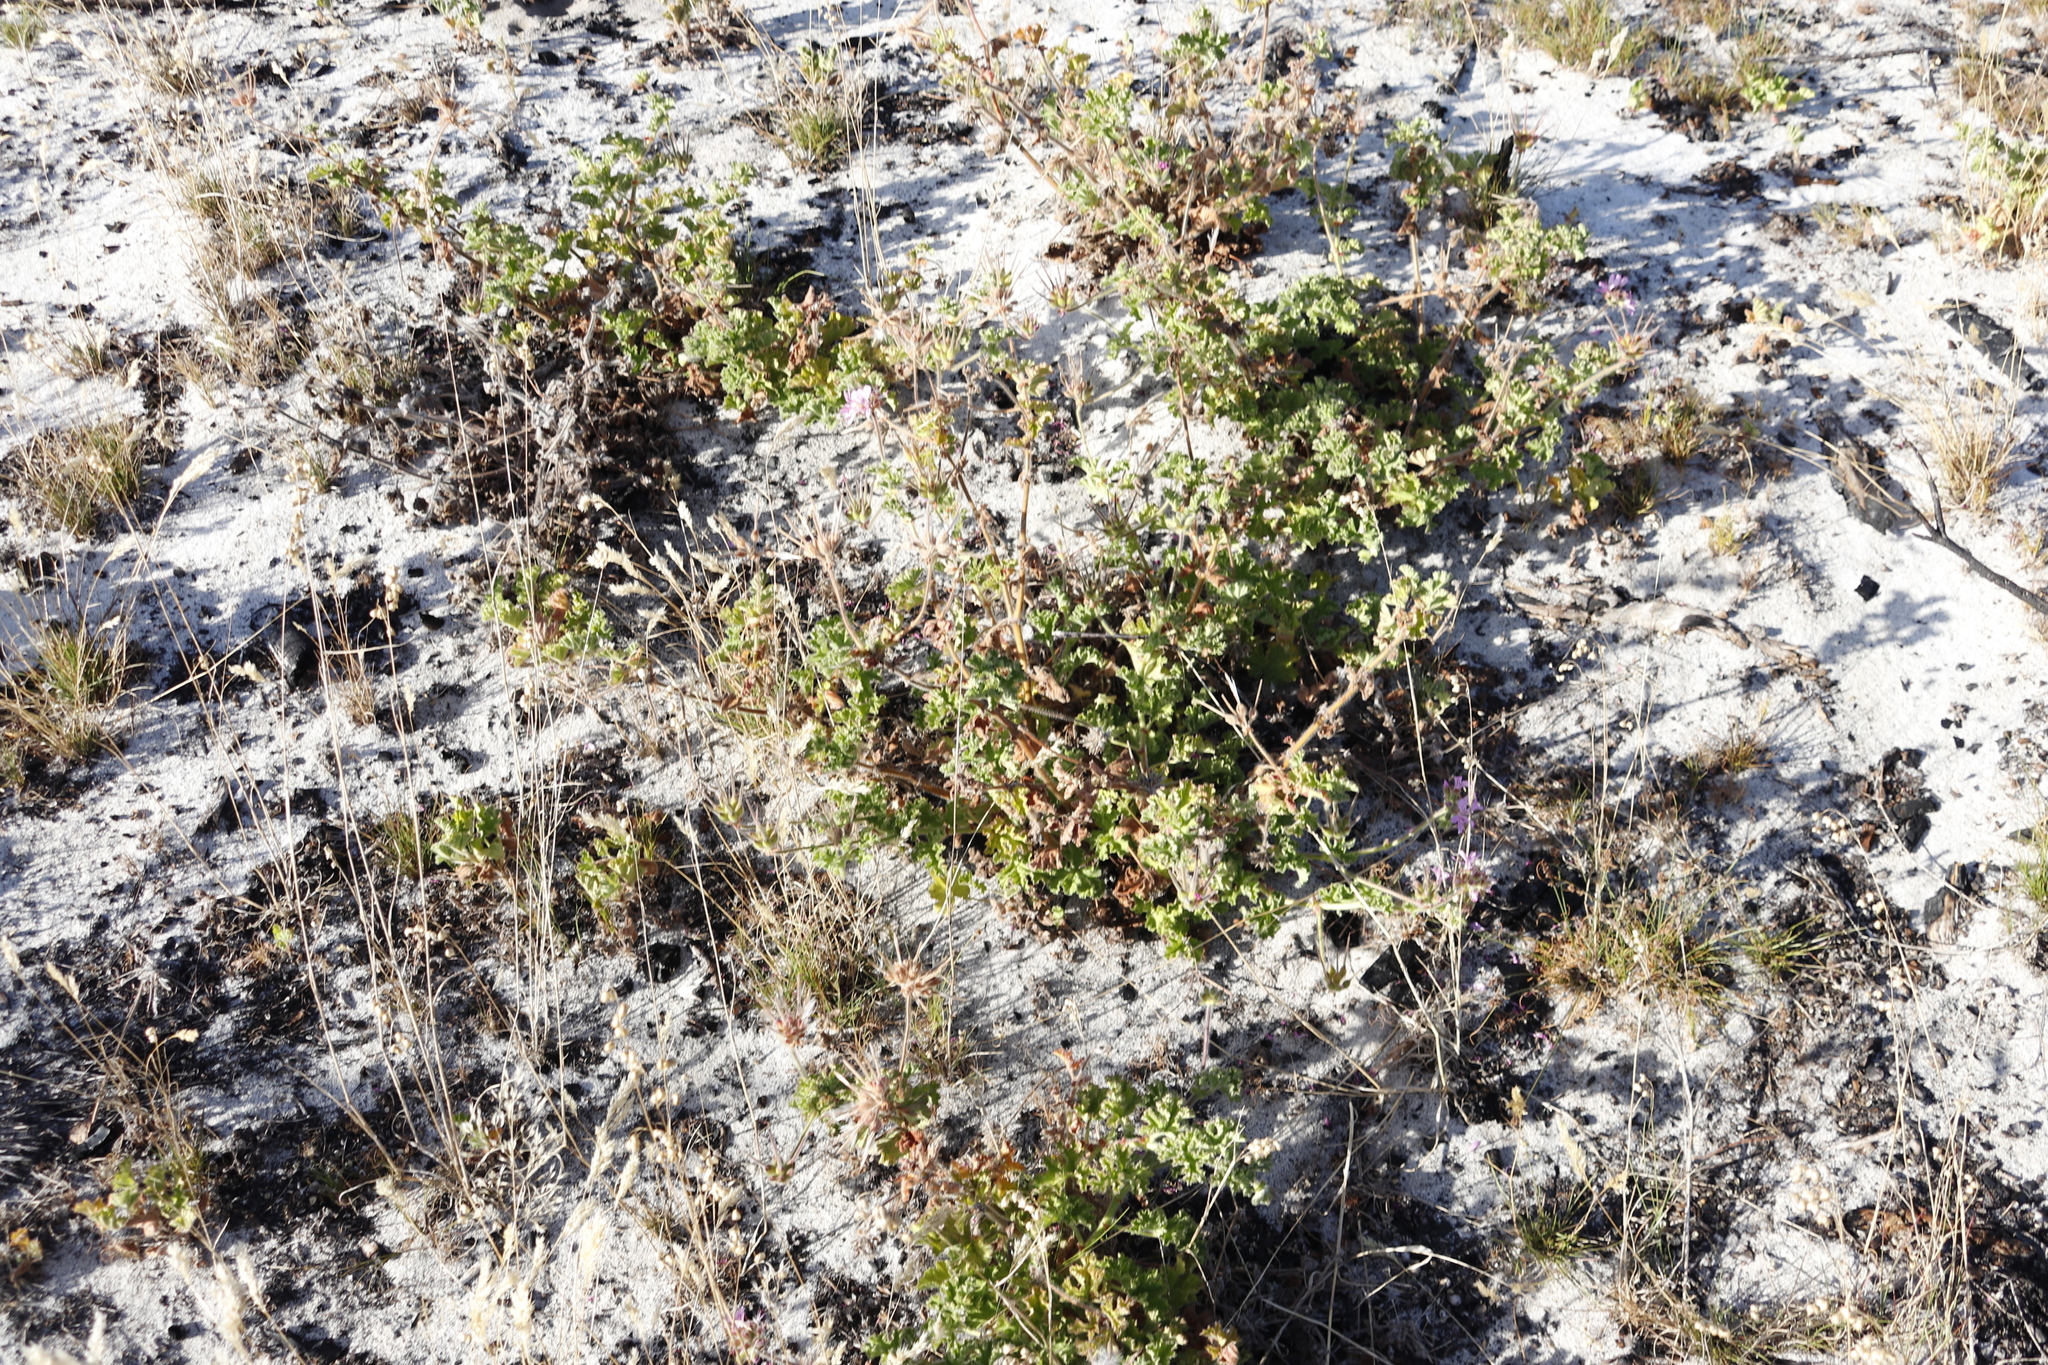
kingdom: Plantae
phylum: Tracheophyta
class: Magnoliopsida
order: Geraniales
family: Geraniaceae
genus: Pelargonium
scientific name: Pelargonium capitatum
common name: Rose scented geranium
